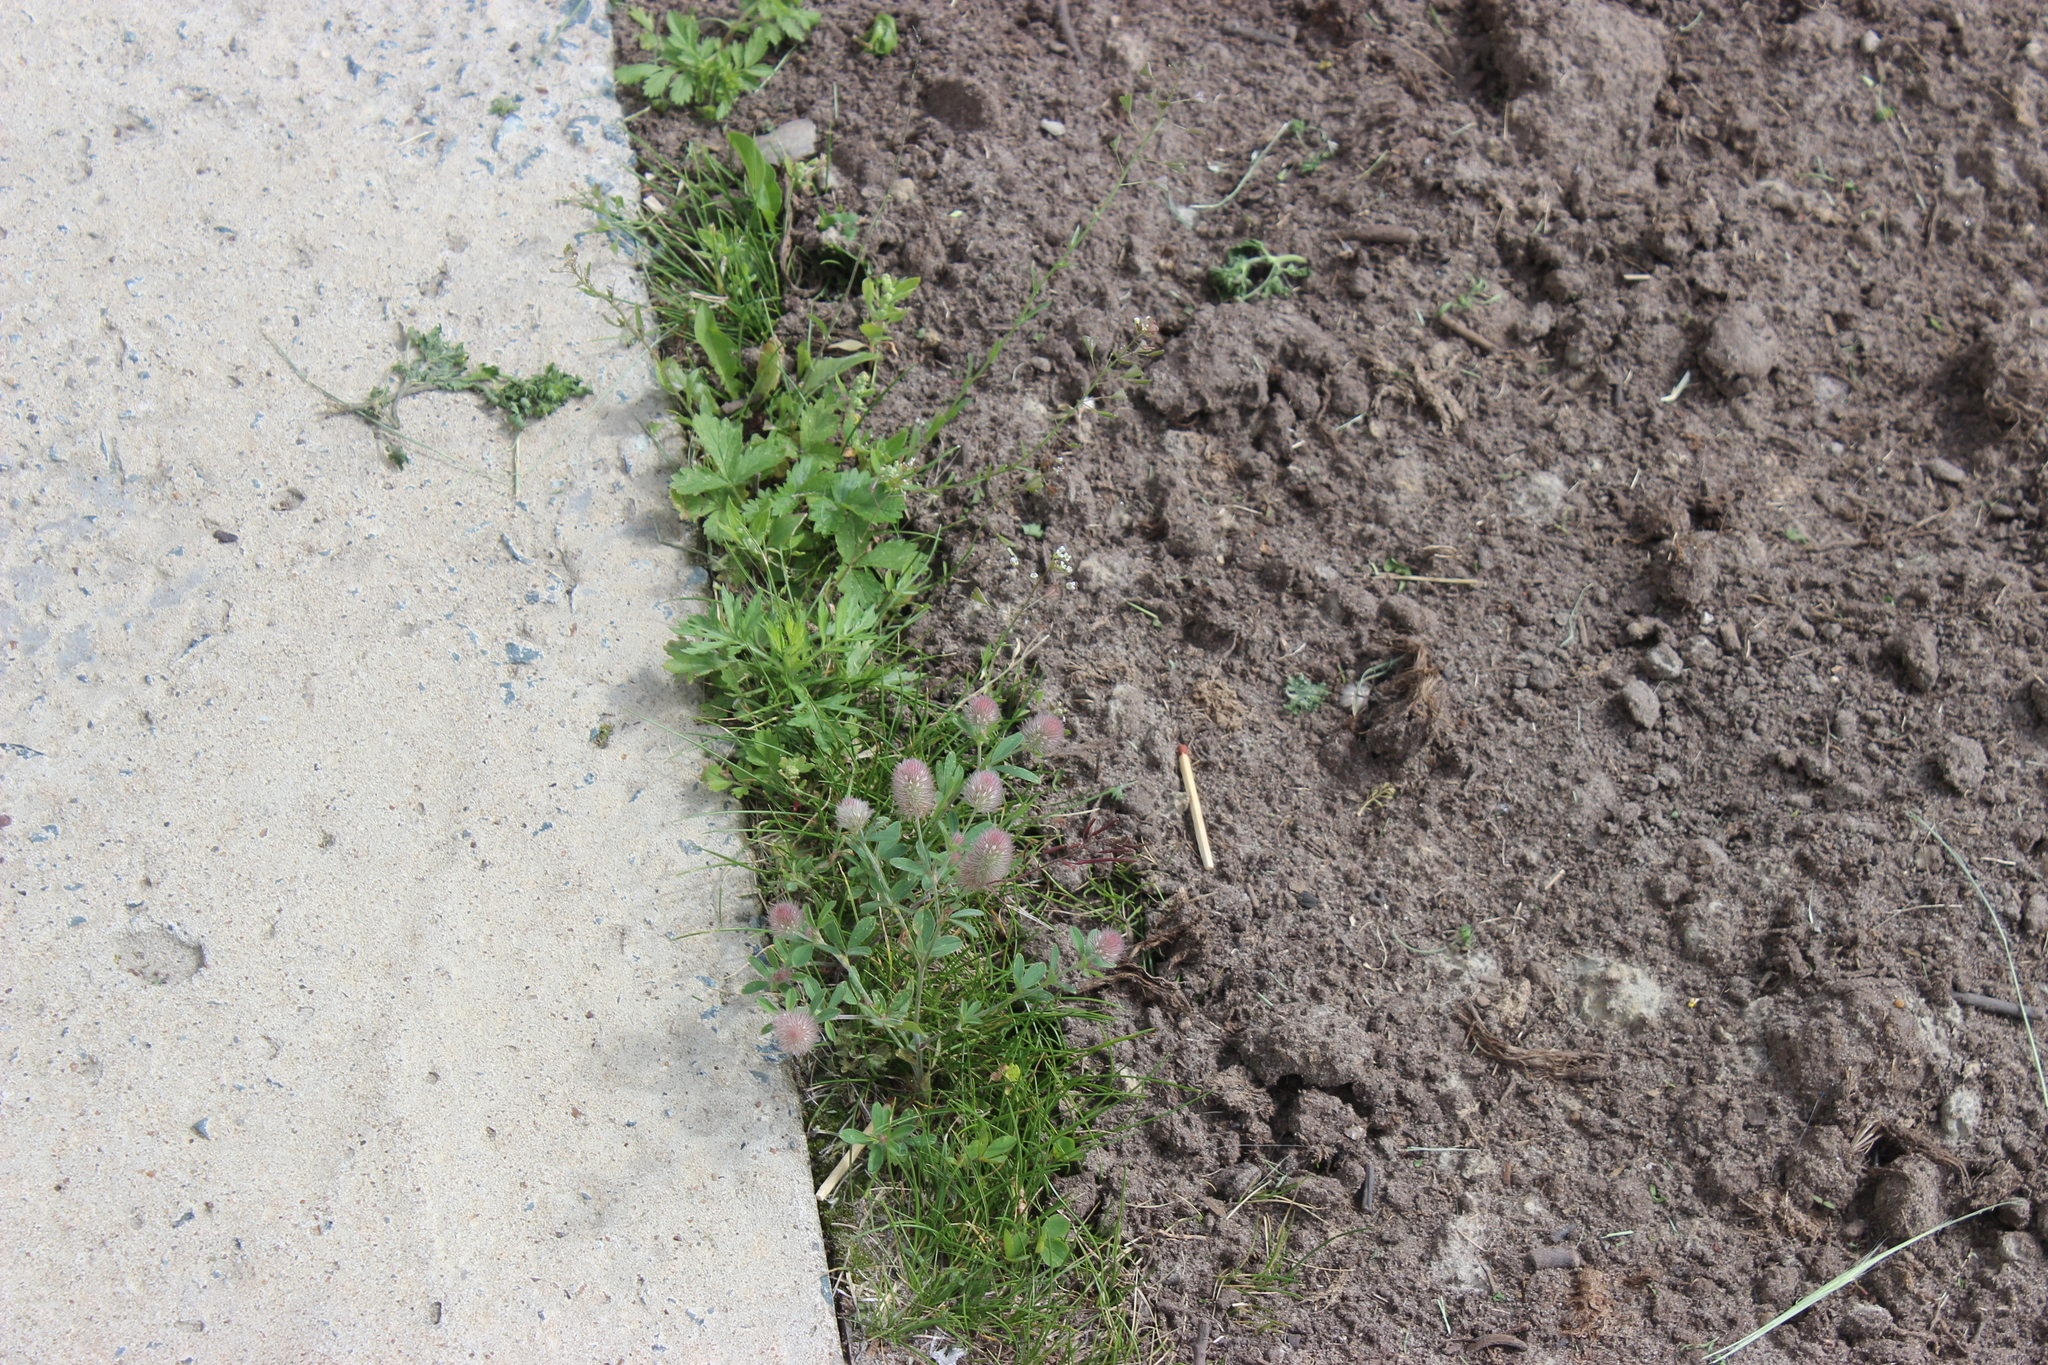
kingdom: Plantae
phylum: Tracheophyta
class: Magnoliopsida
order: Fabales
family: Fabaceae
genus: Trifolium
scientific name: Trifolium arvense
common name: Hare's-foot clover
